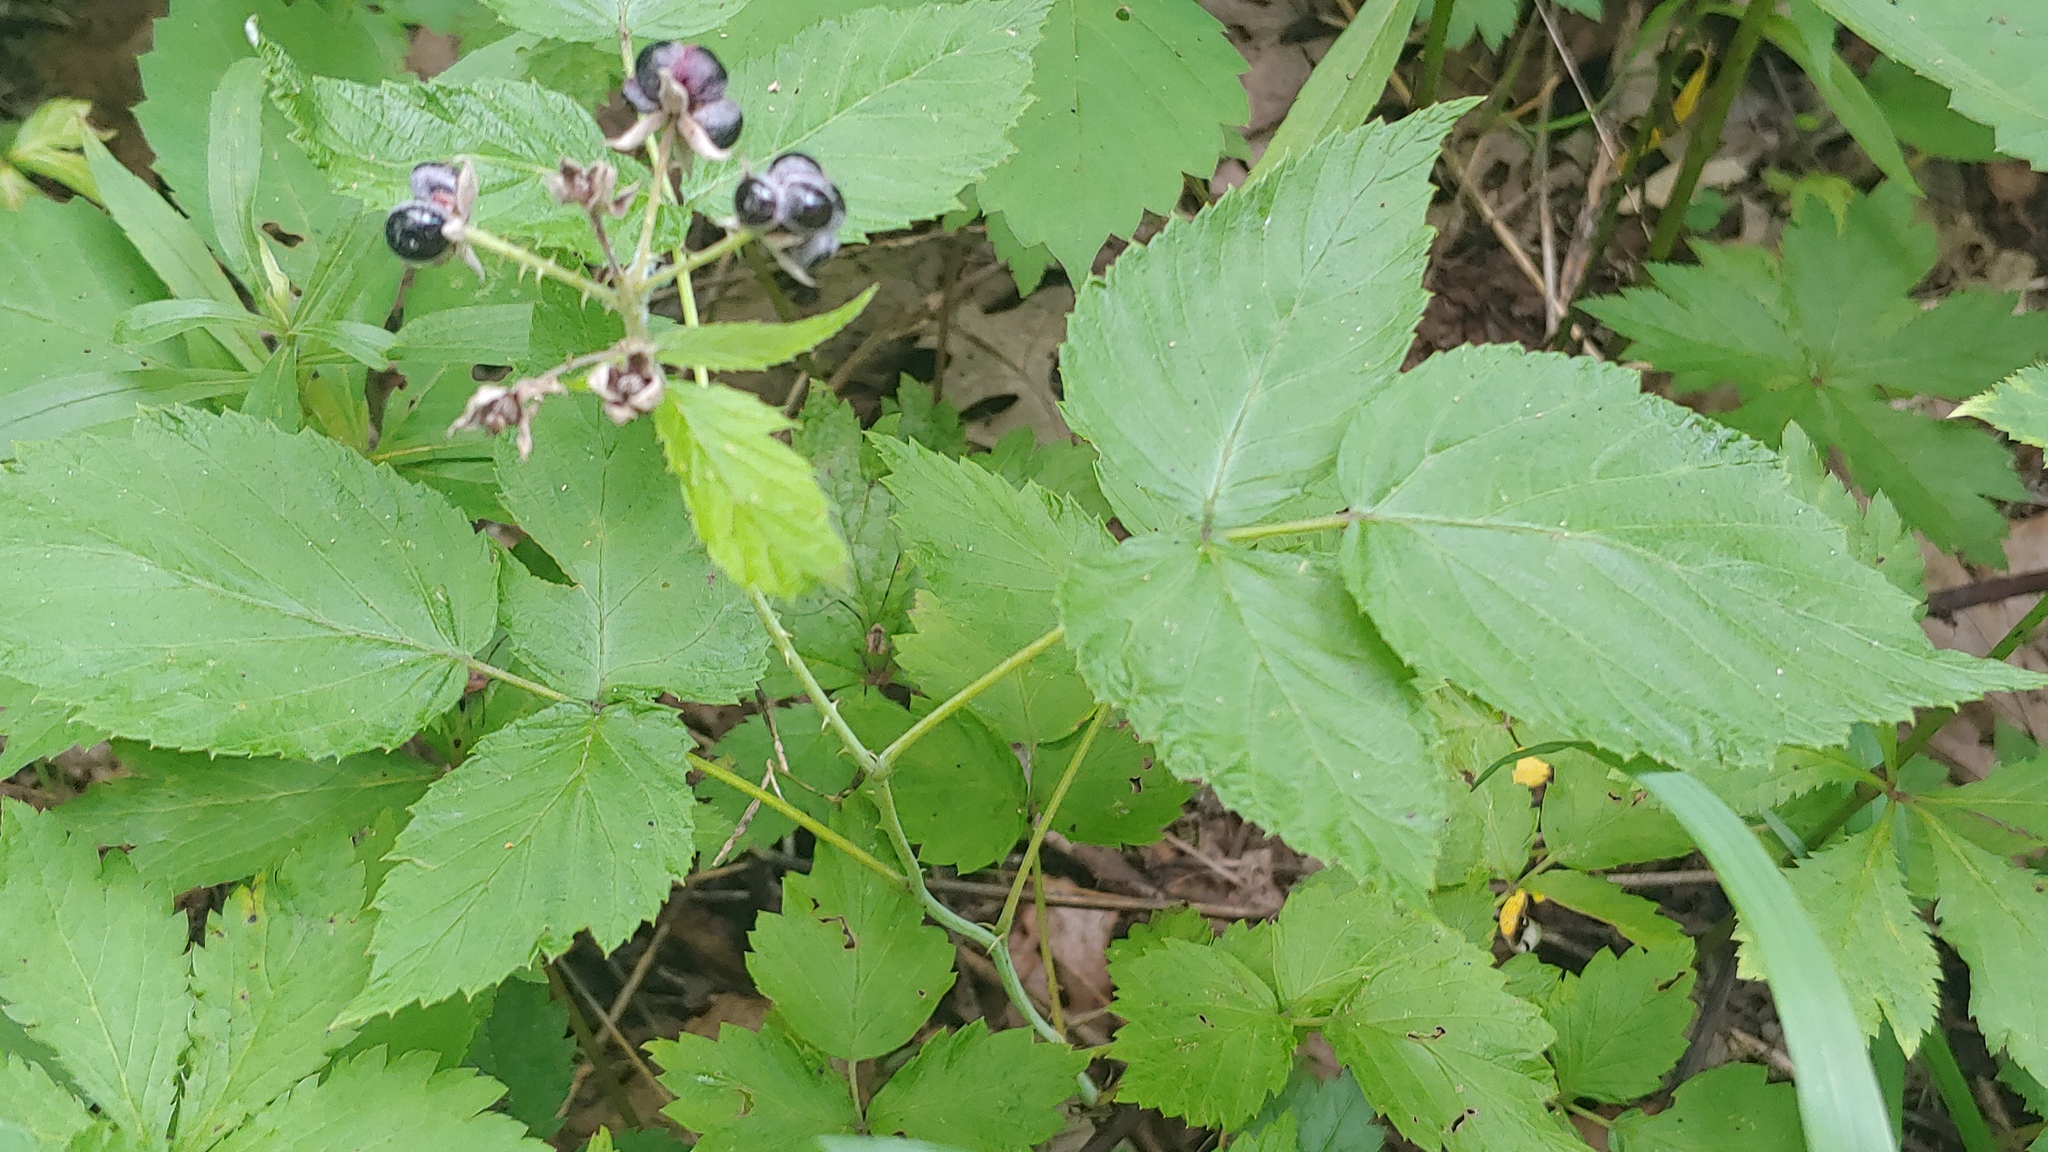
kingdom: Plantae
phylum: Tracheophyta
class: Magnoliopsida
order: Rosales
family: Rosaceae
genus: Rubus
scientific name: Rubus caesius
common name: Dewberry
